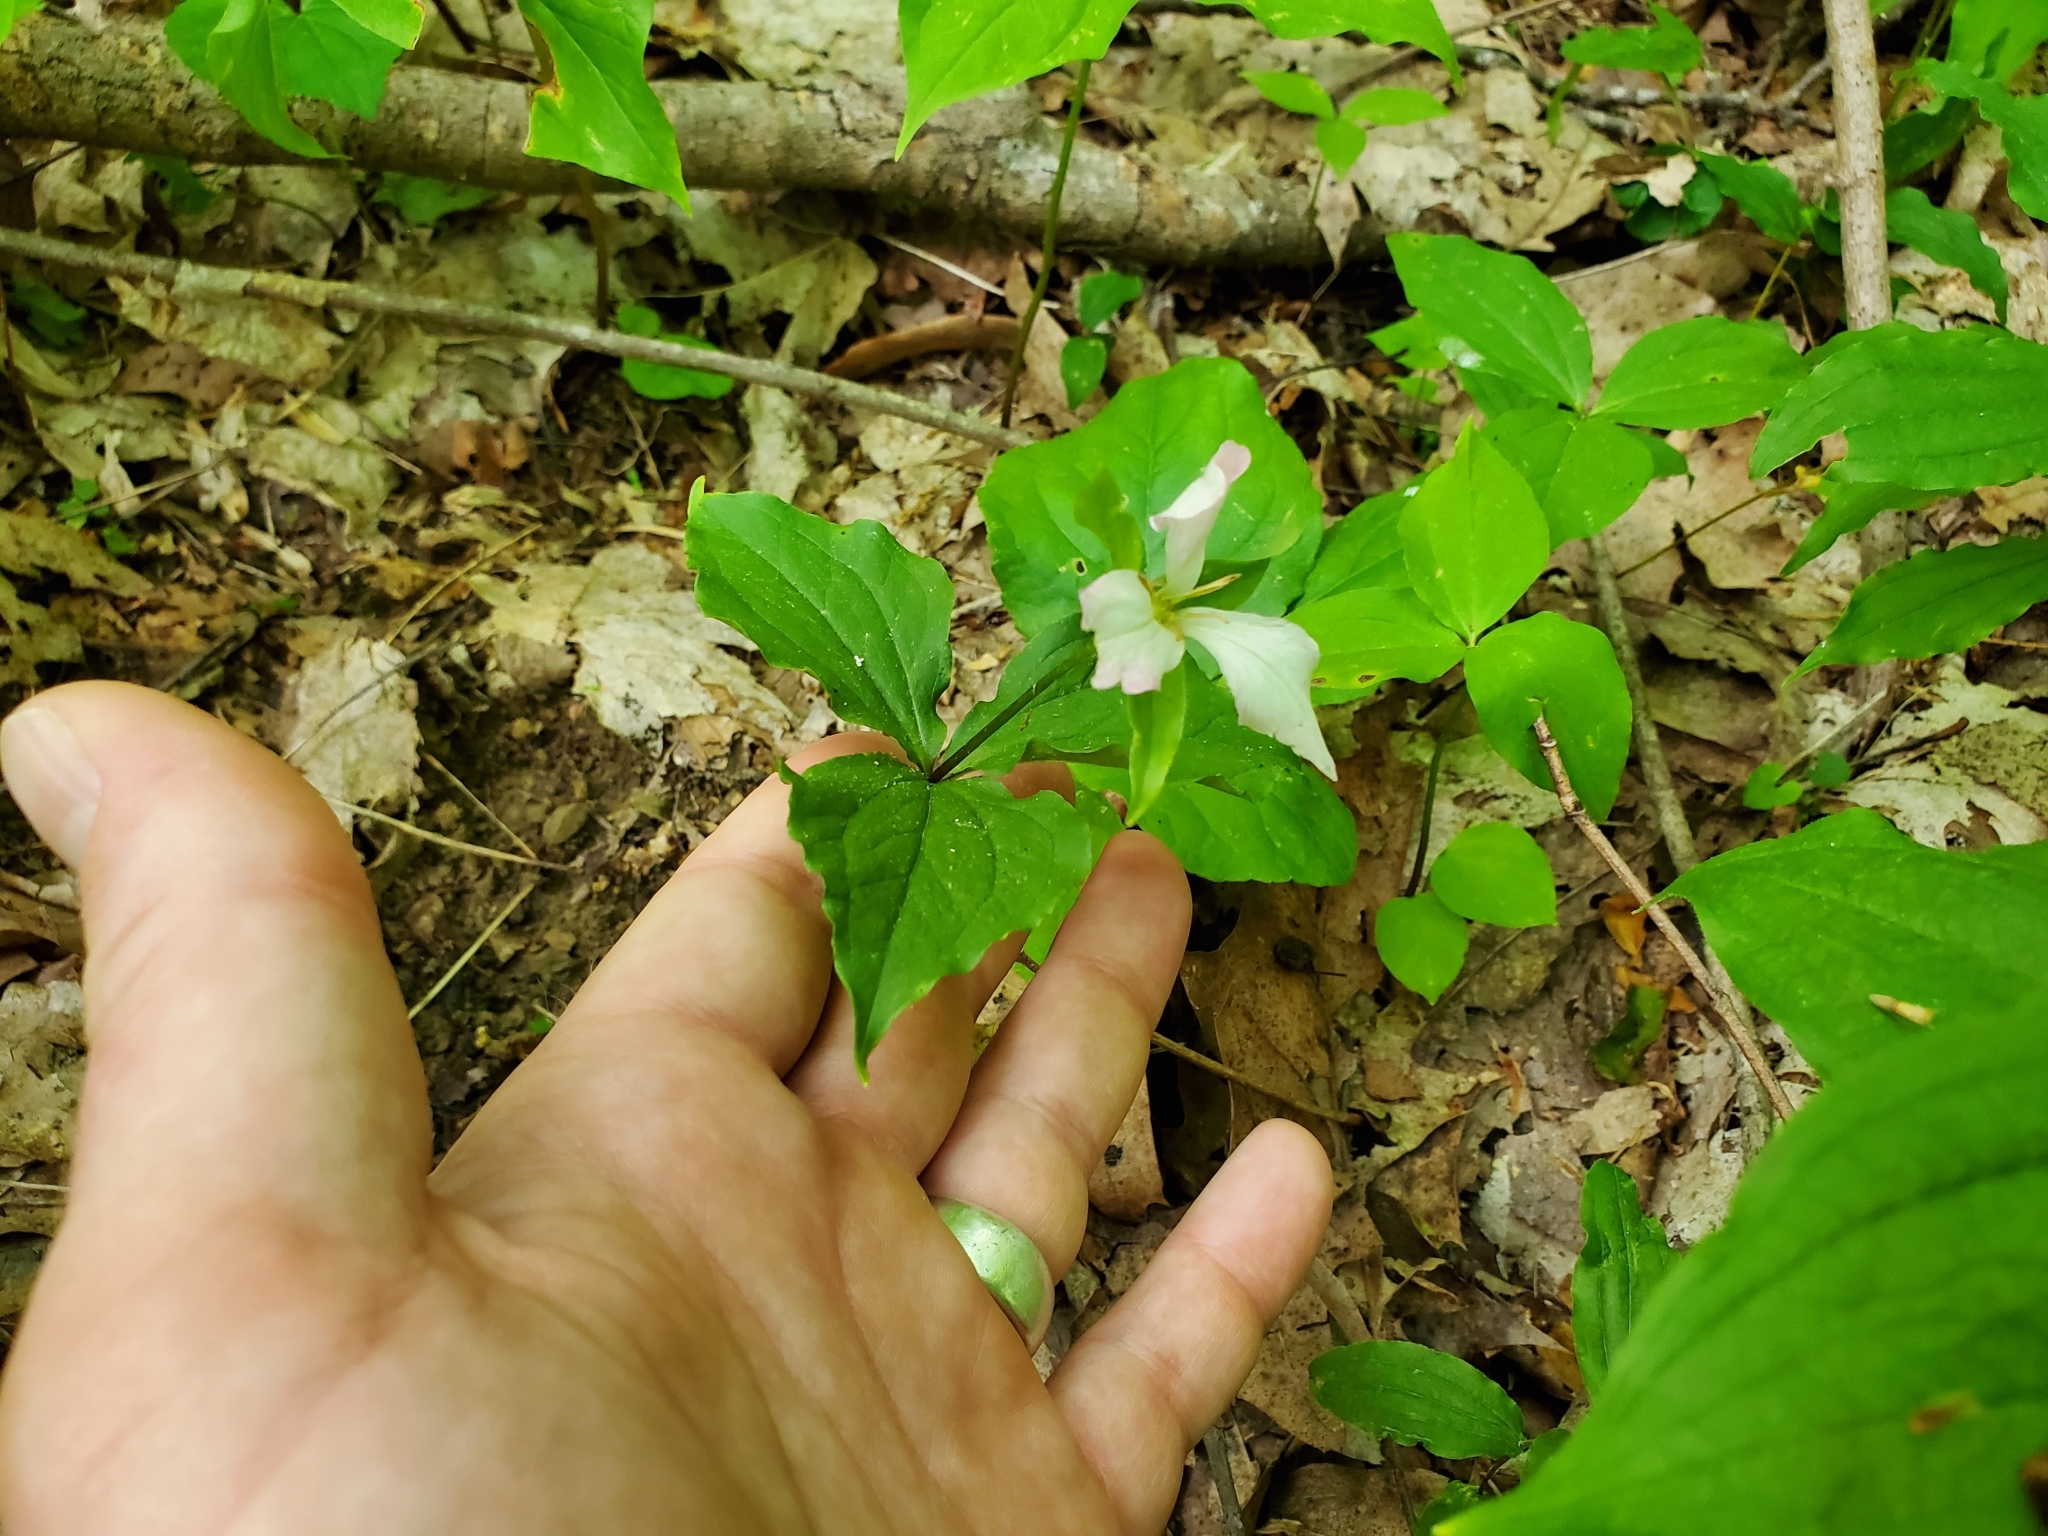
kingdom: Plantae
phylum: Tracheophyta
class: Liliopsida
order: Liliales
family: Melanthiaceae
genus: Trillium
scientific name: Trillium grandiflorum
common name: Great white trillium
